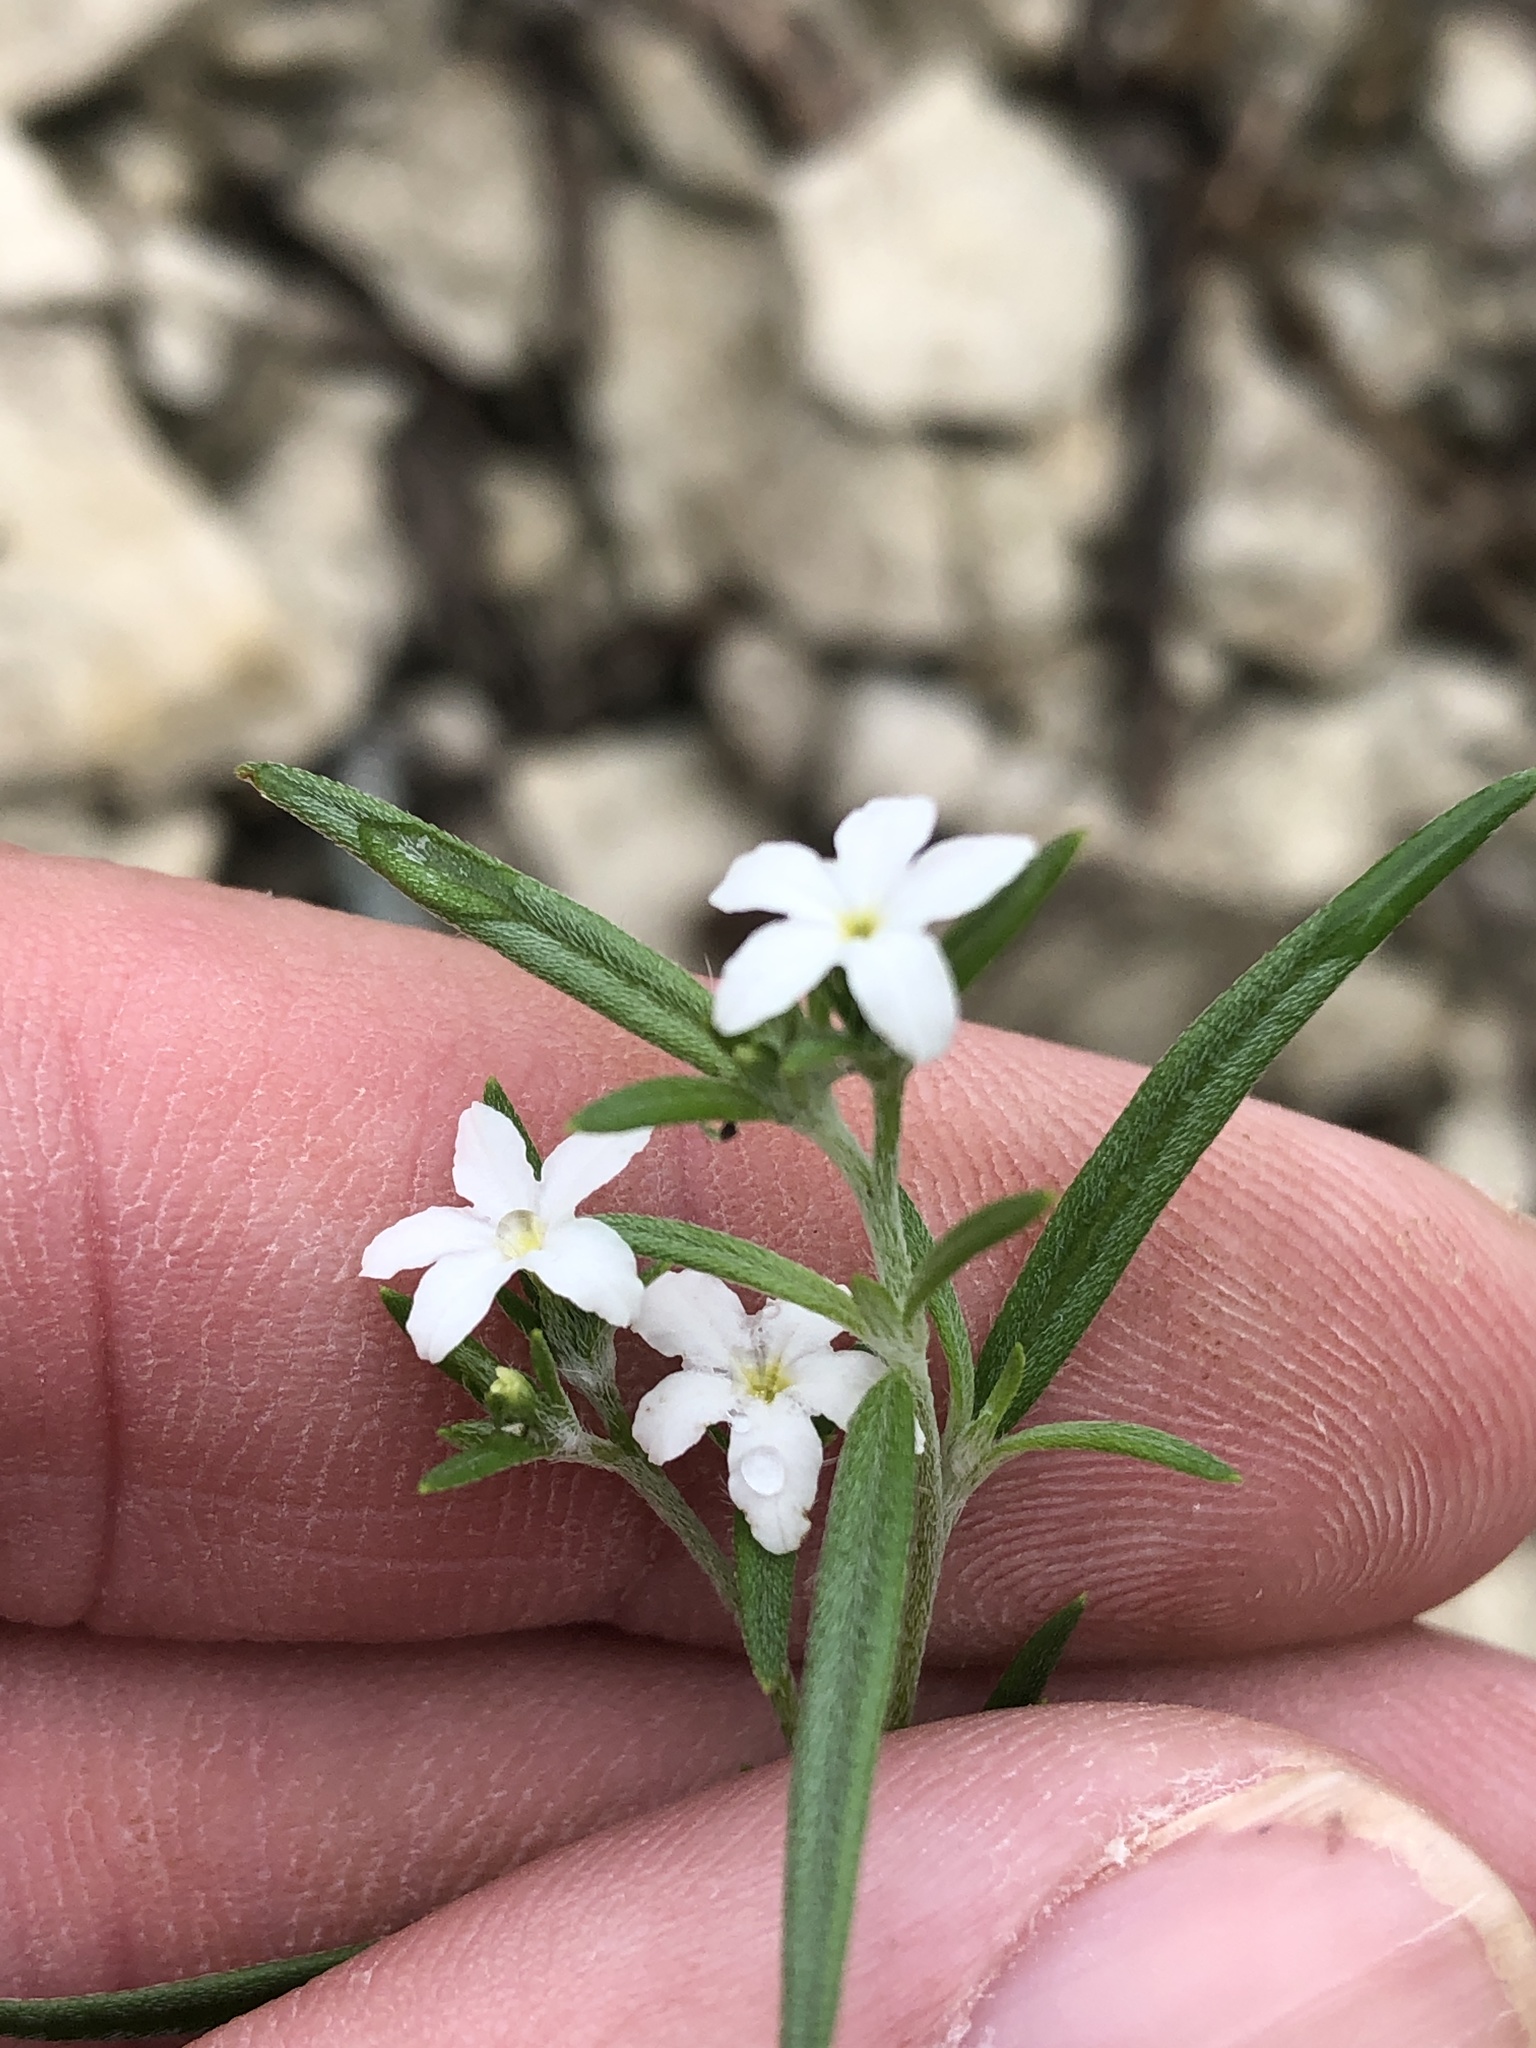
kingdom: Plantae
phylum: Tracheophyta
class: Magnoliopsida
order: Boraginales
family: Heliotropiaceae
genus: Euploca
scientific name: Euploca tenella
